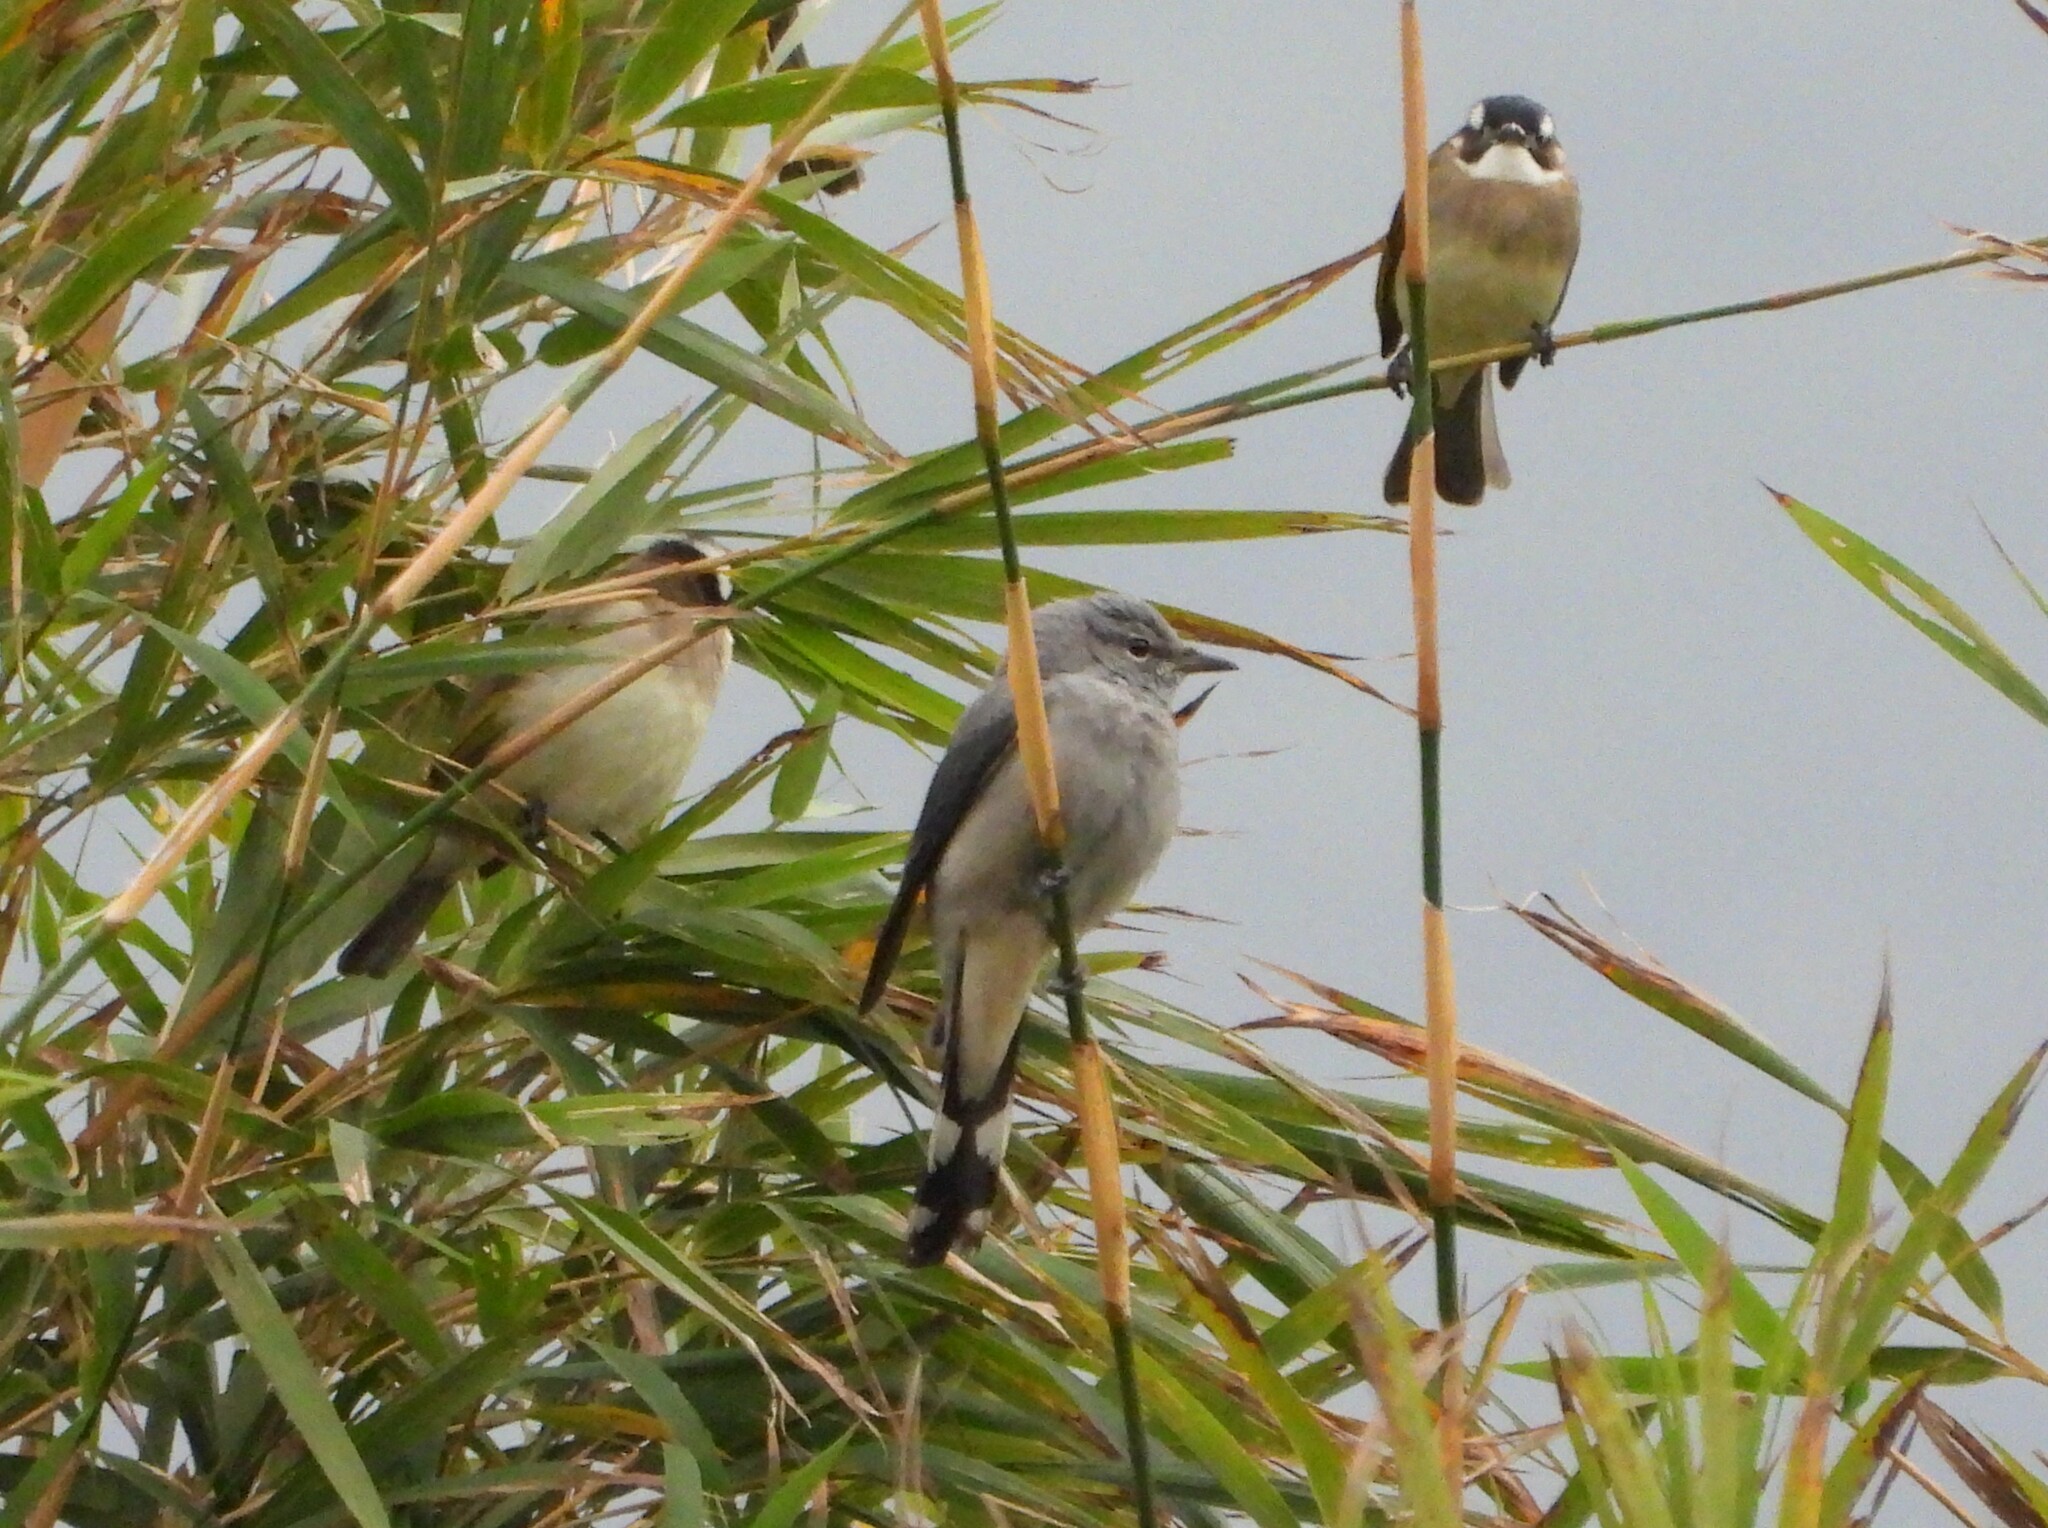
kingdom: Animalia
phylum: Chordata
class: Aves
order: Passeriformes
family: Campephagidae
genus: Coracina
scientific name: Coracina melaschistos
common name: Black-winged cuckooshrike
